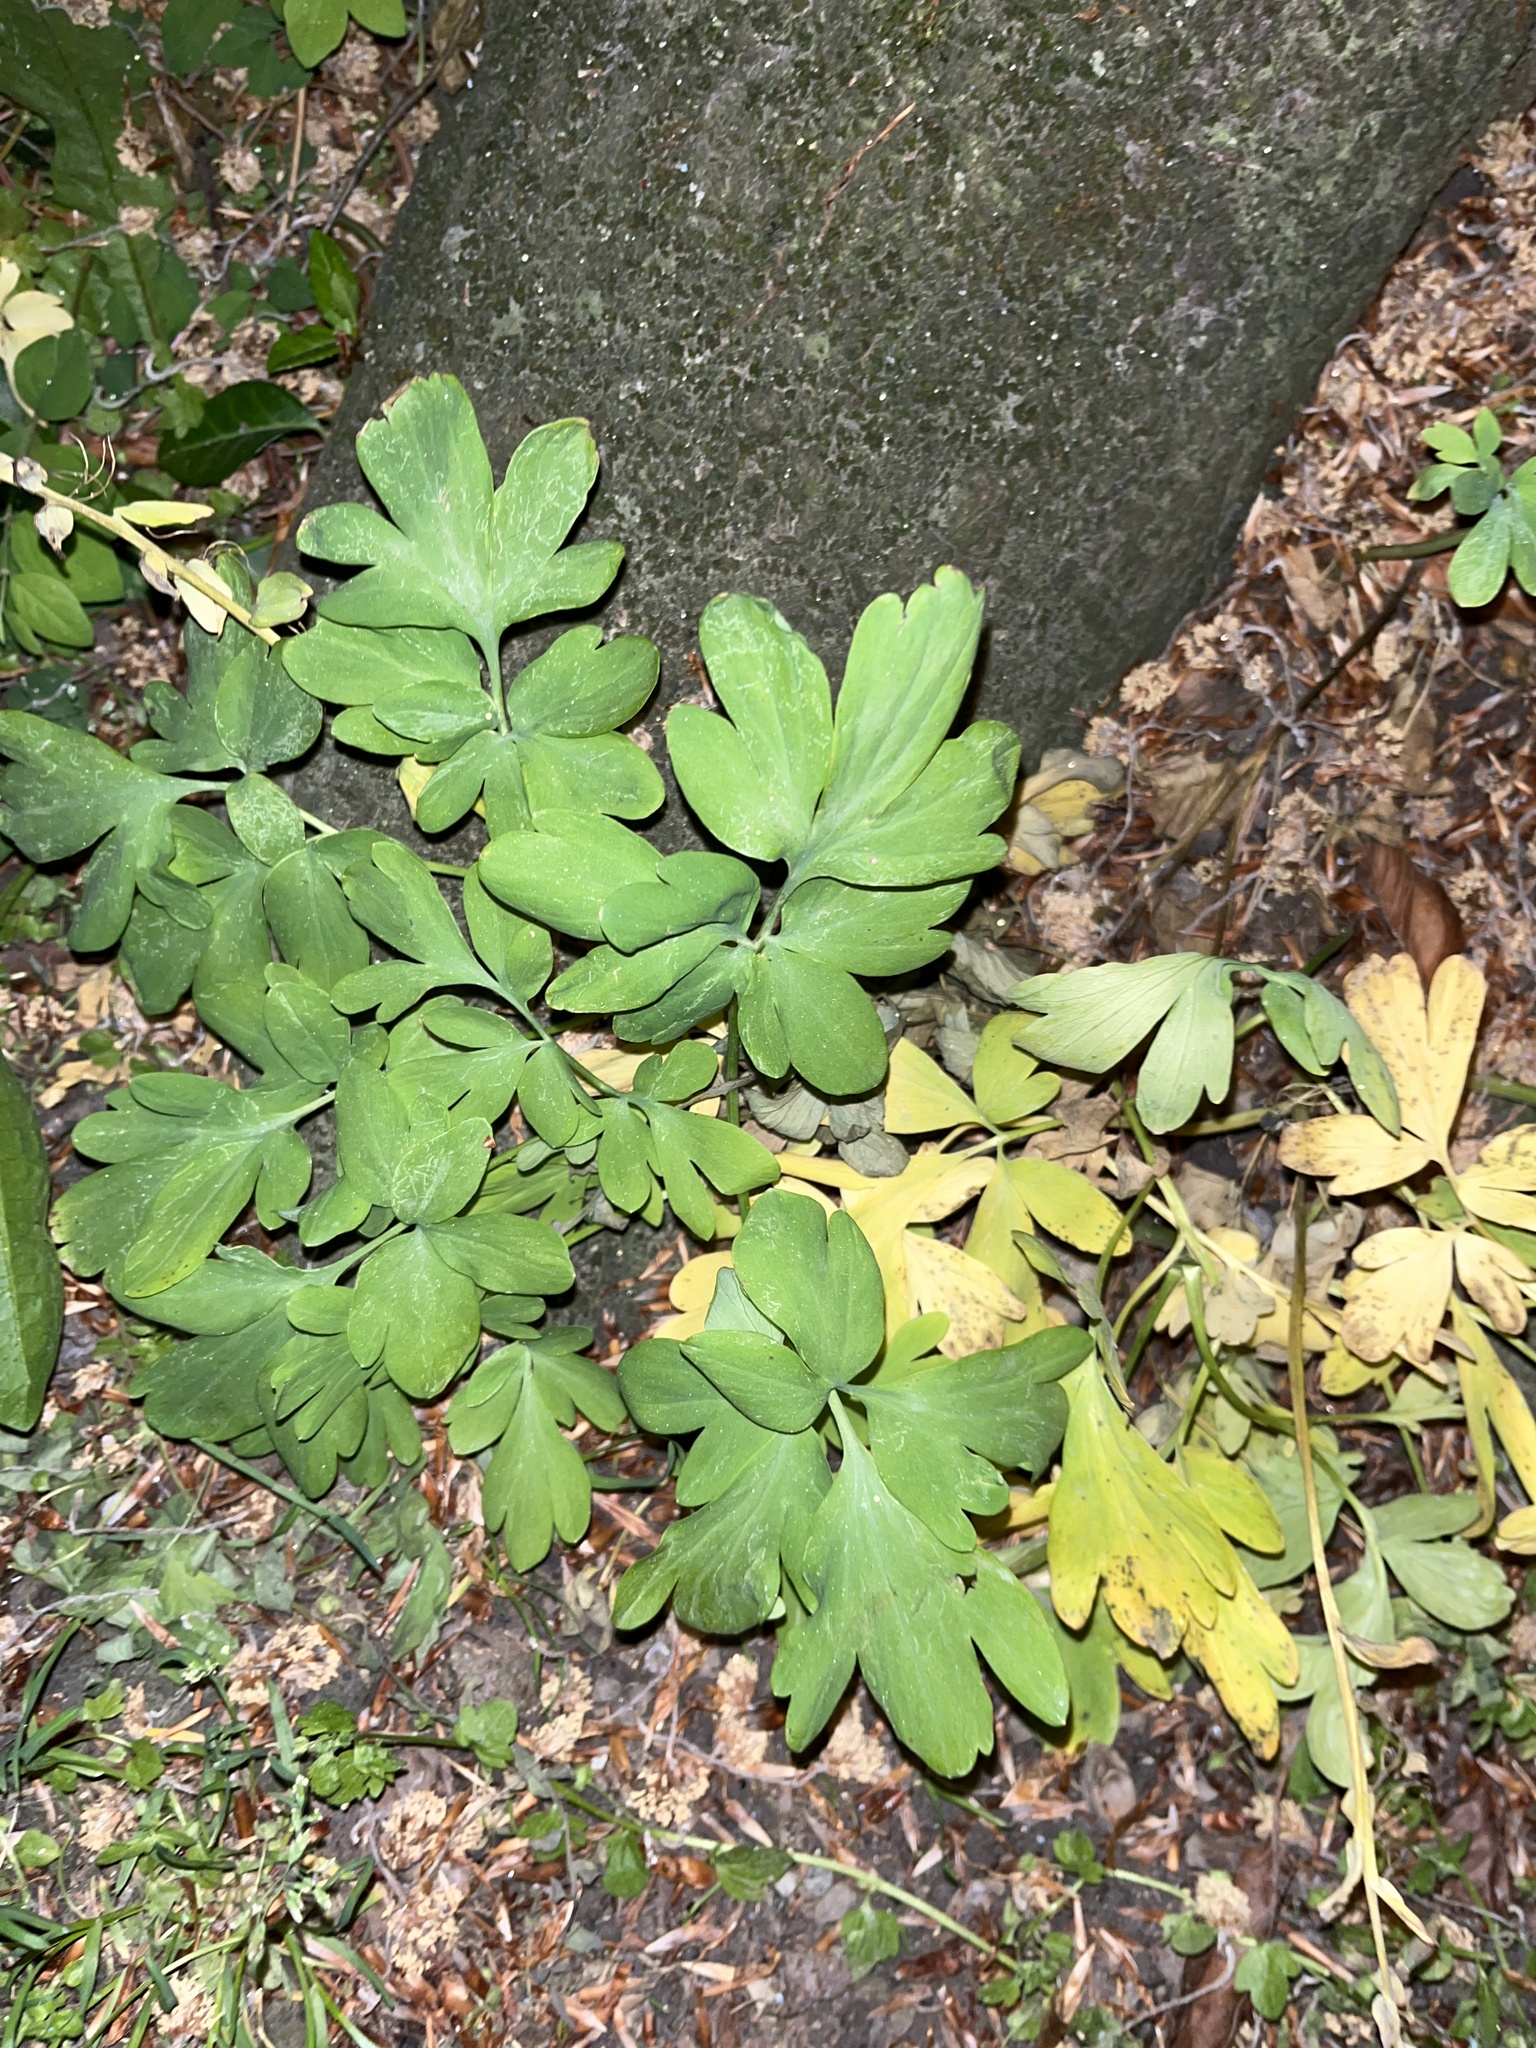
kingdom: Plantae
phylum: Tracheophyta
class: Magnoliopsida
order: Ranunculales
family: Papaveraceae
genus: Corydalis
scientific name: Corydalis cava
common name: Hollowroot
